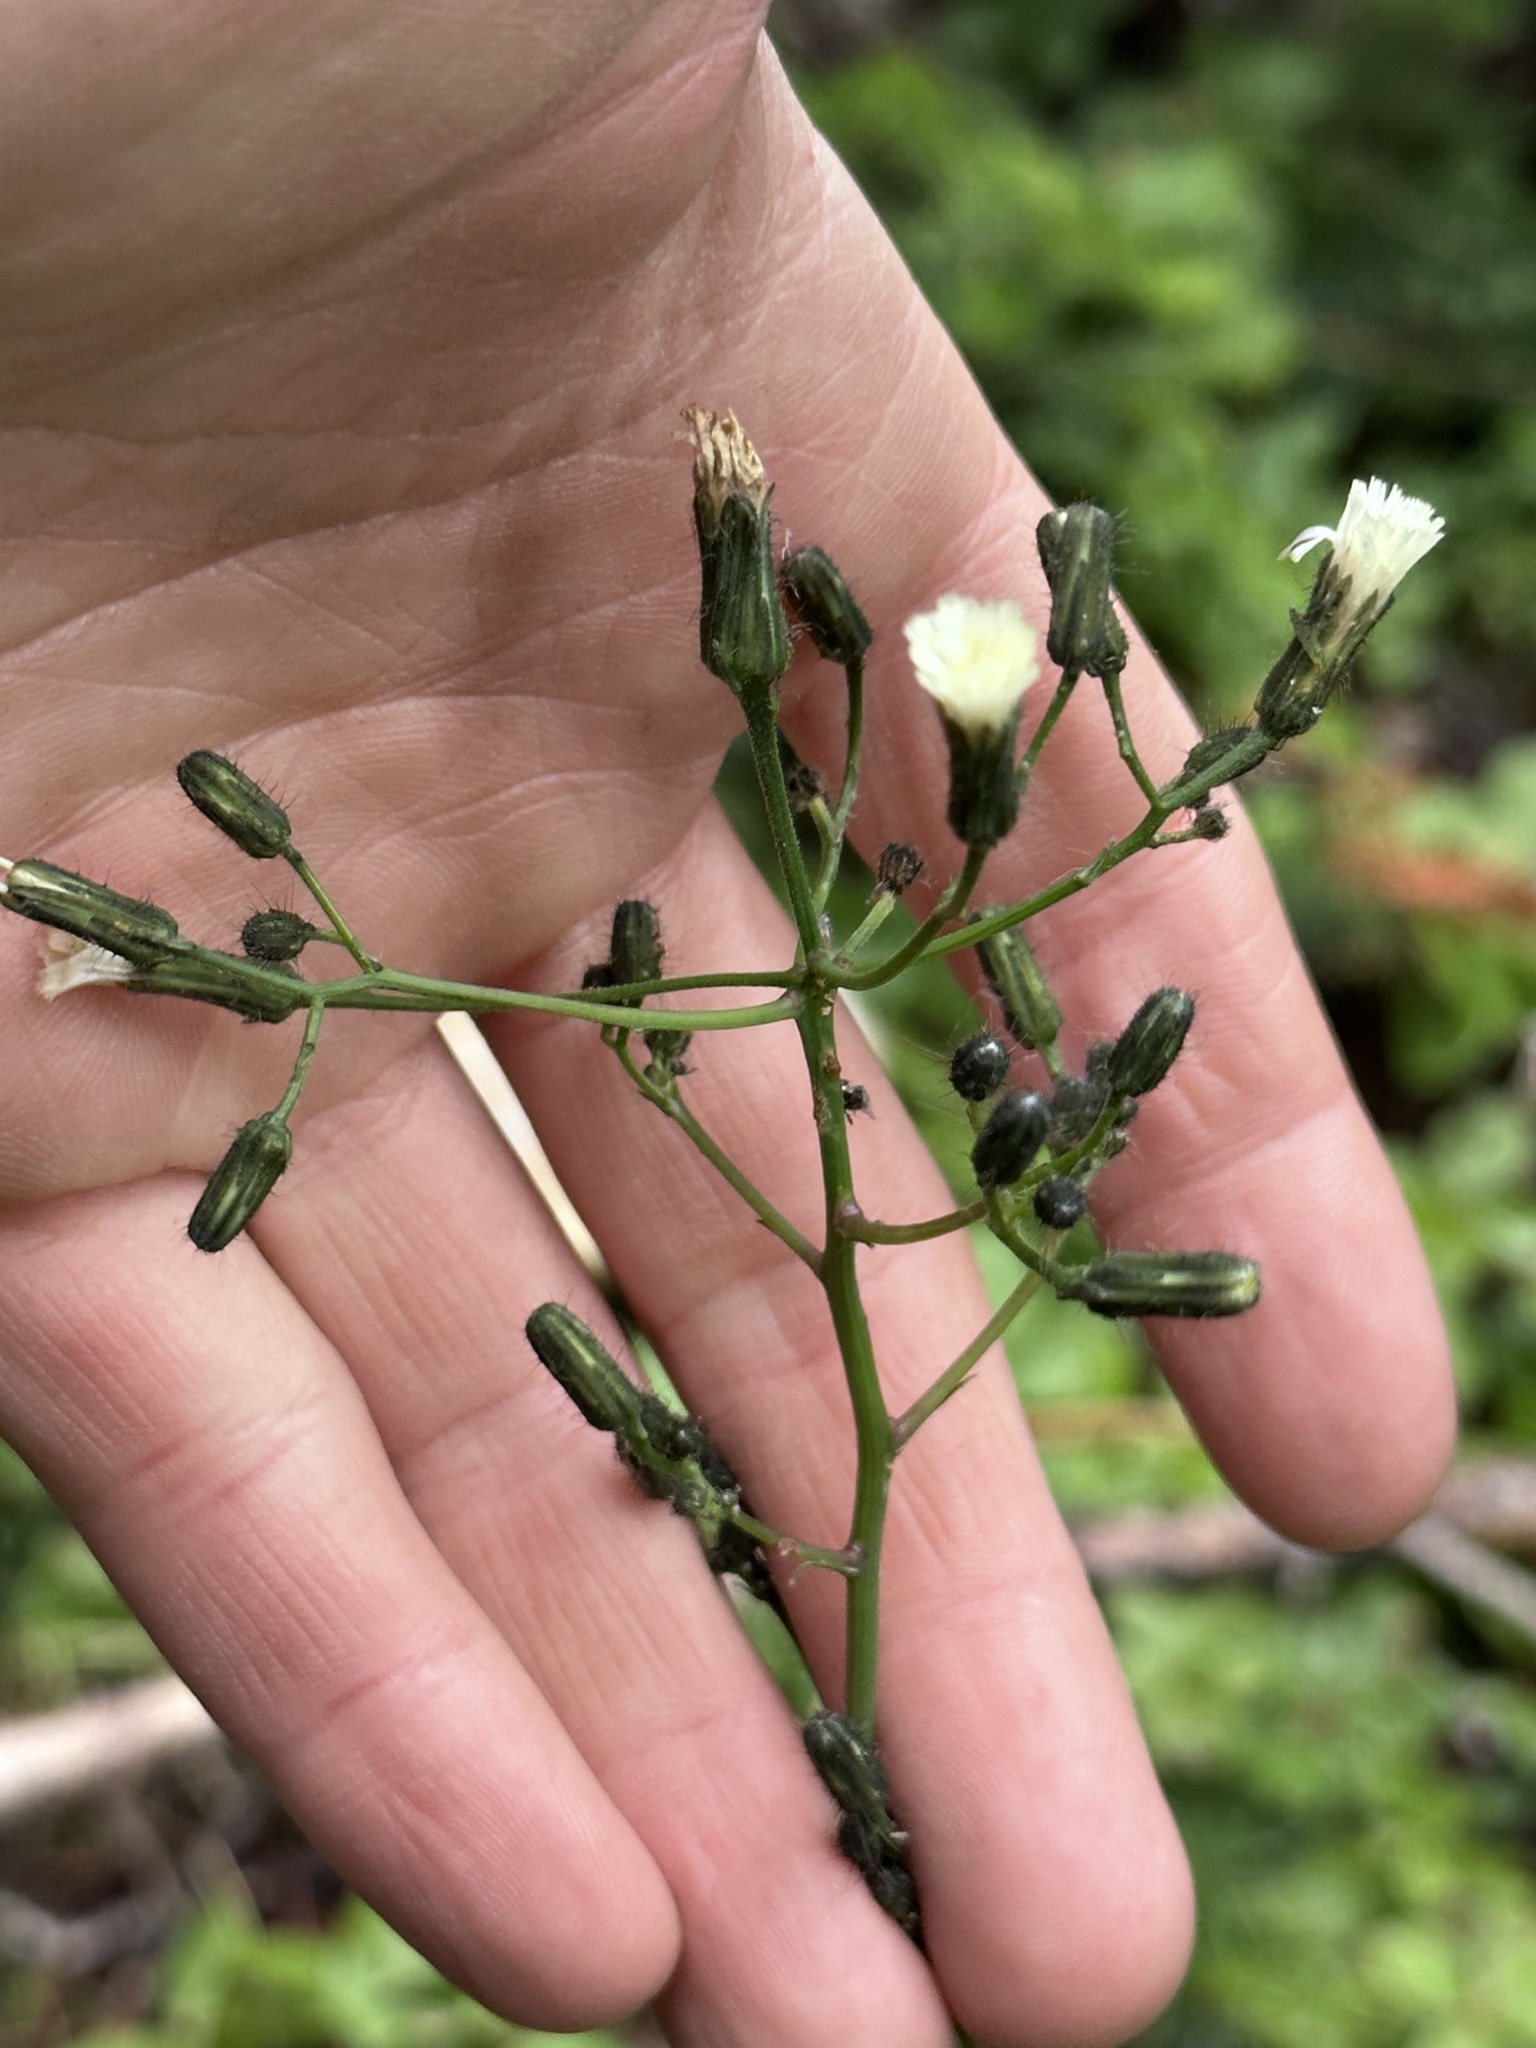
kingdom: Plantae
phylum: Tracheophyta
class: Magnoliopsida
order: Asterales
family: Asteraceae
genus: Hieracium
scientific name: Hieracium albiflorum
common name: White hawkweed
